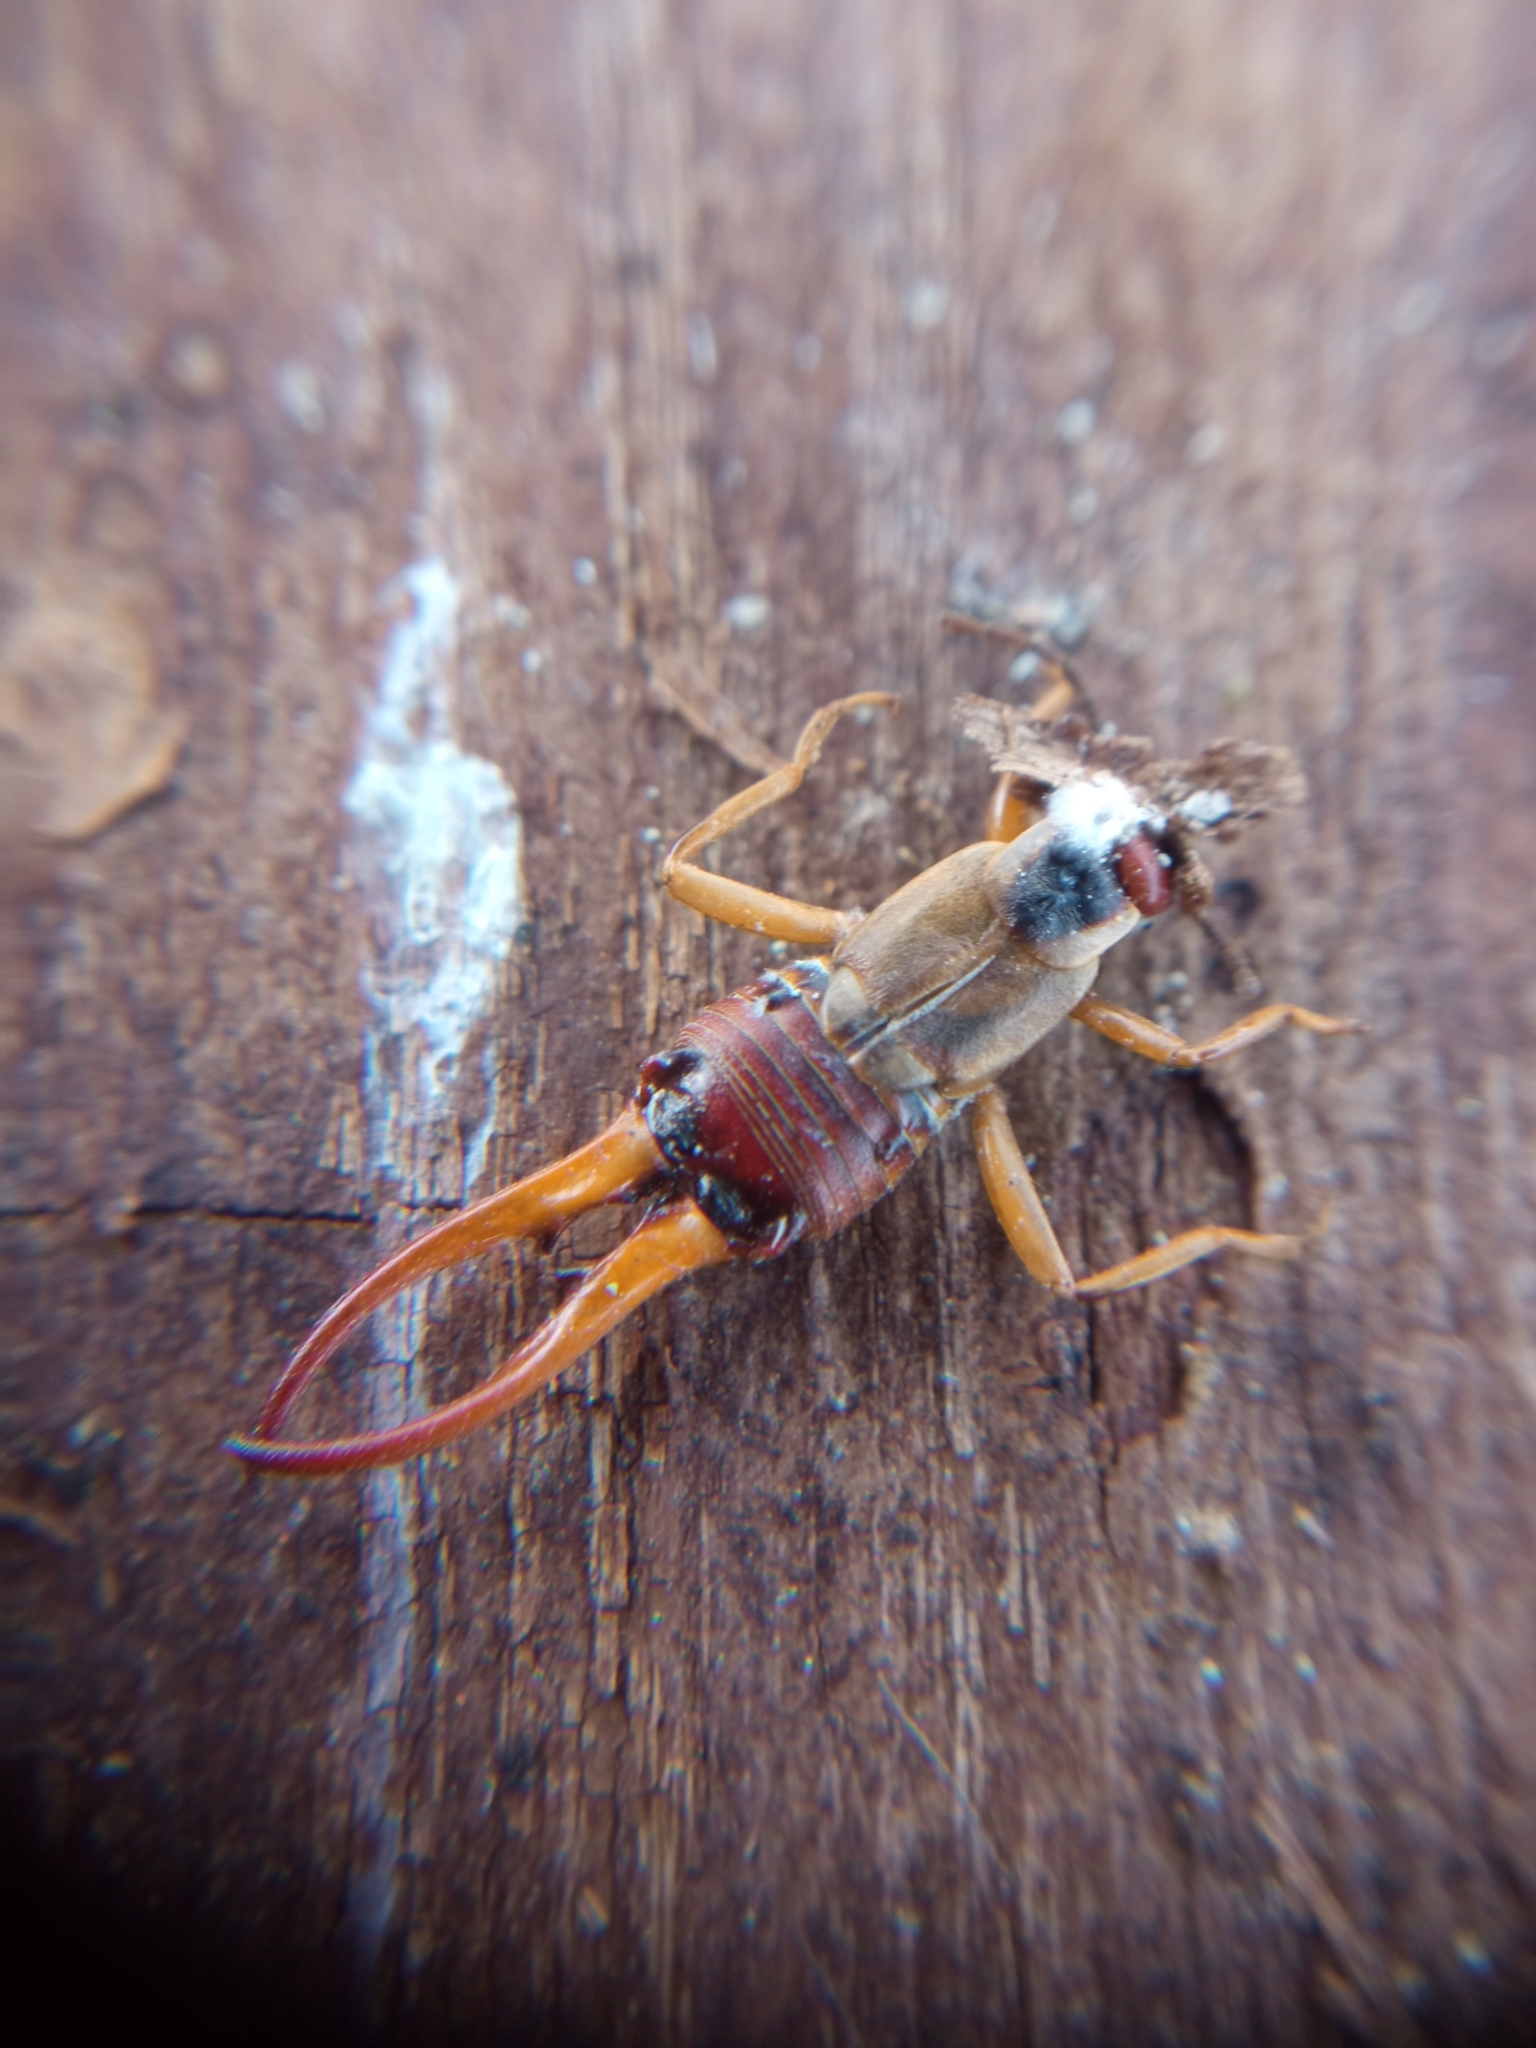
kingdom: Animalia
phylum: Arthropoda
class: Insecta
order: Dermaptera
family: Forficulidae
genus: Forficula
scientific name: Forficula
